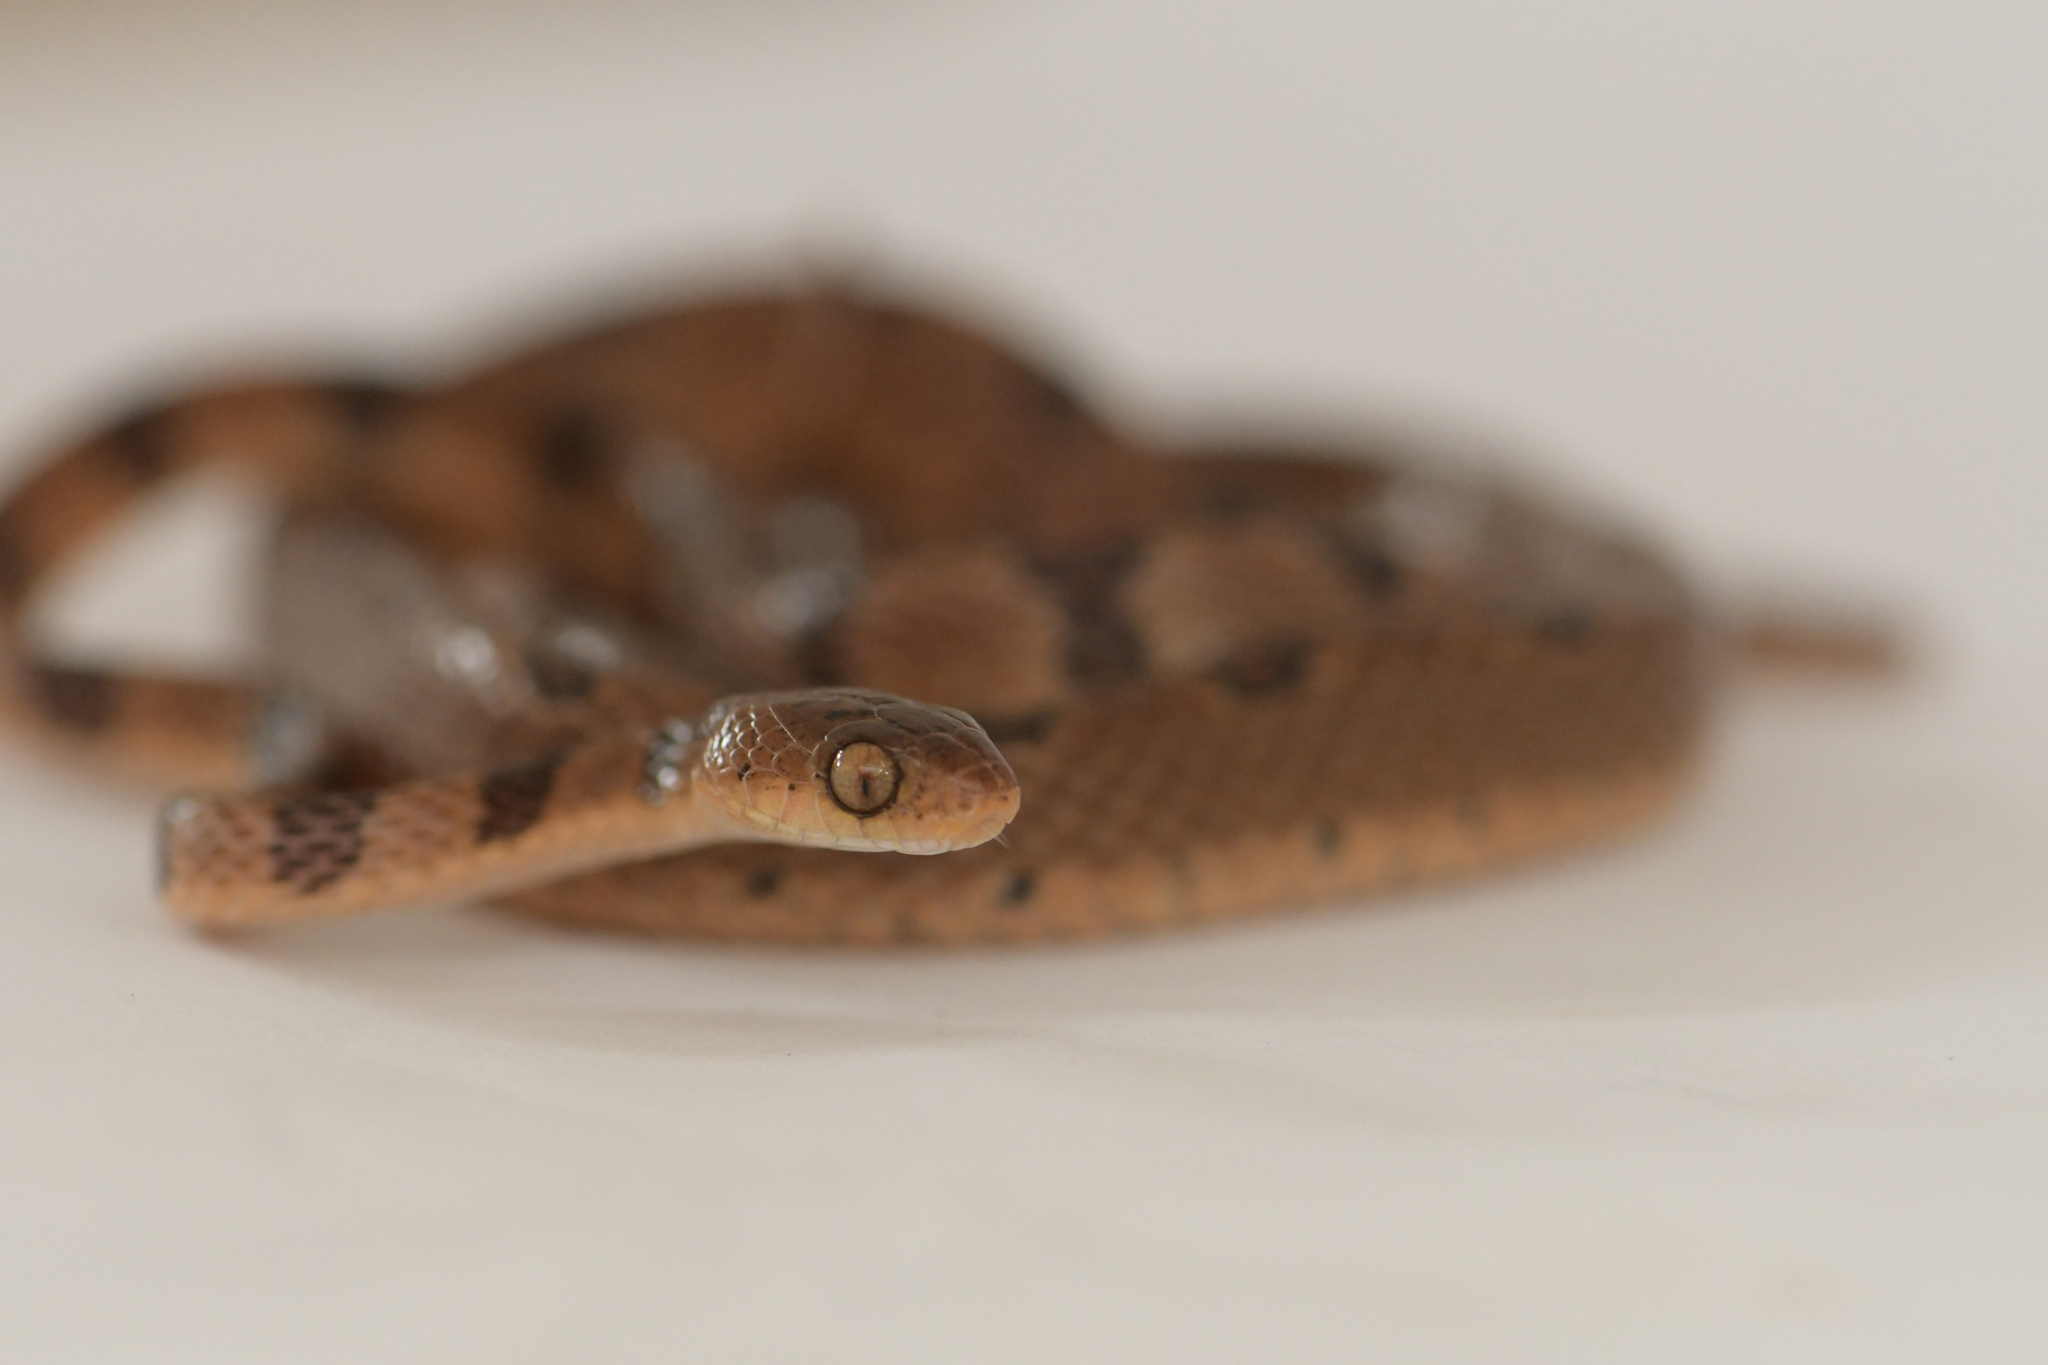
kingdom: Animalia
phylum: Chordata
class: Squamata
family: Colubridae
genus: Imantodes
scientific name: Imantodes gemmistratus
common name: Central american tree snake
